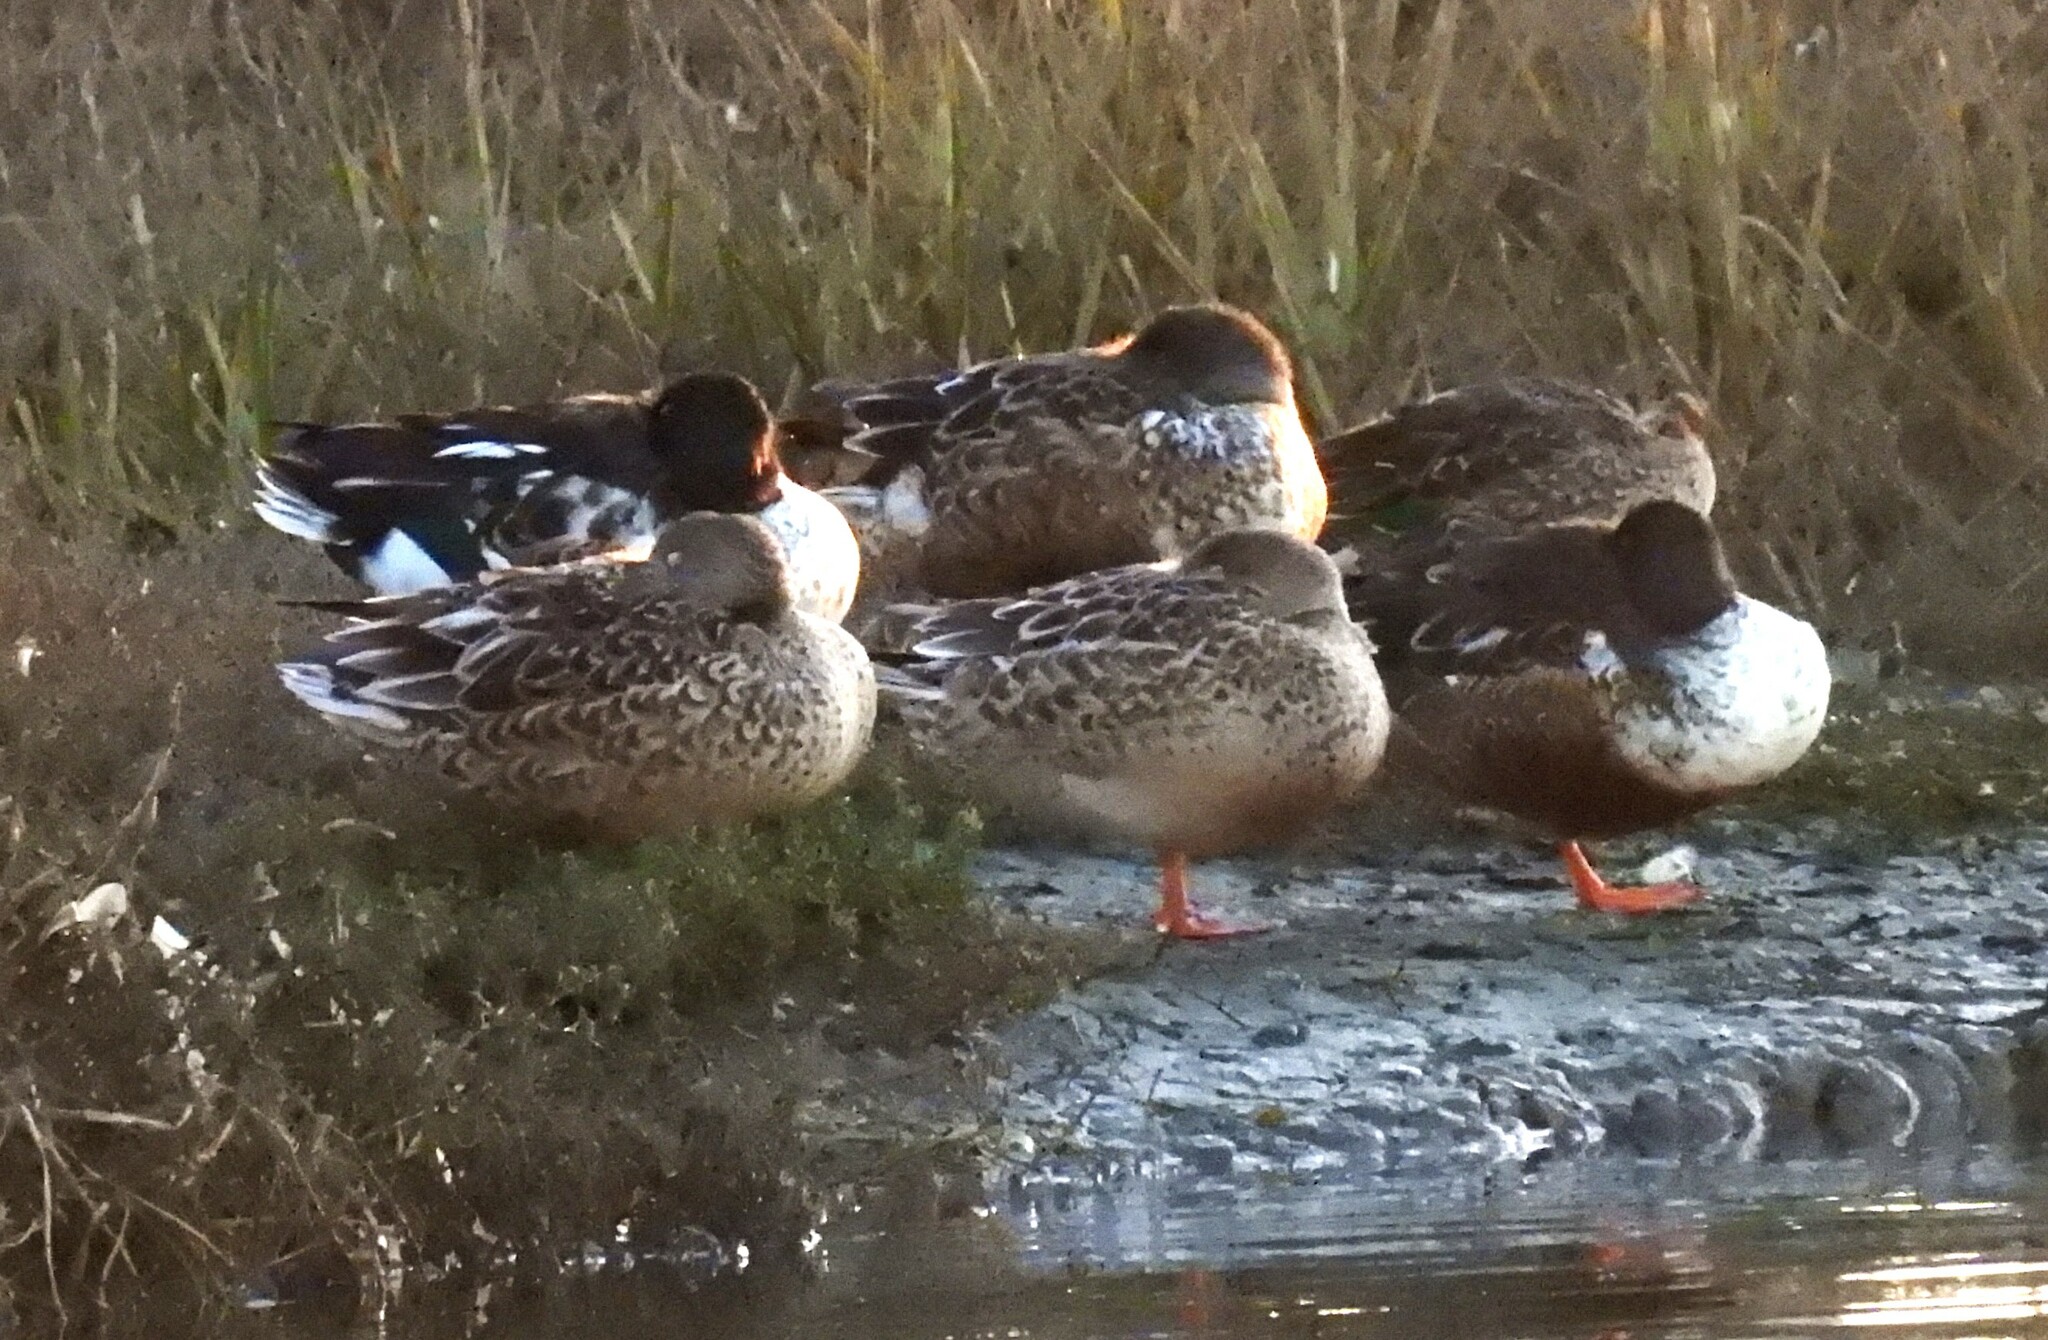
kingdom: Animalia
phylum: Chordata
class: Aves
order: Anseriformes
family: Anatidae
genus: Spatula
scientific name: Spatula clypeata
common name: Northern shoveler
